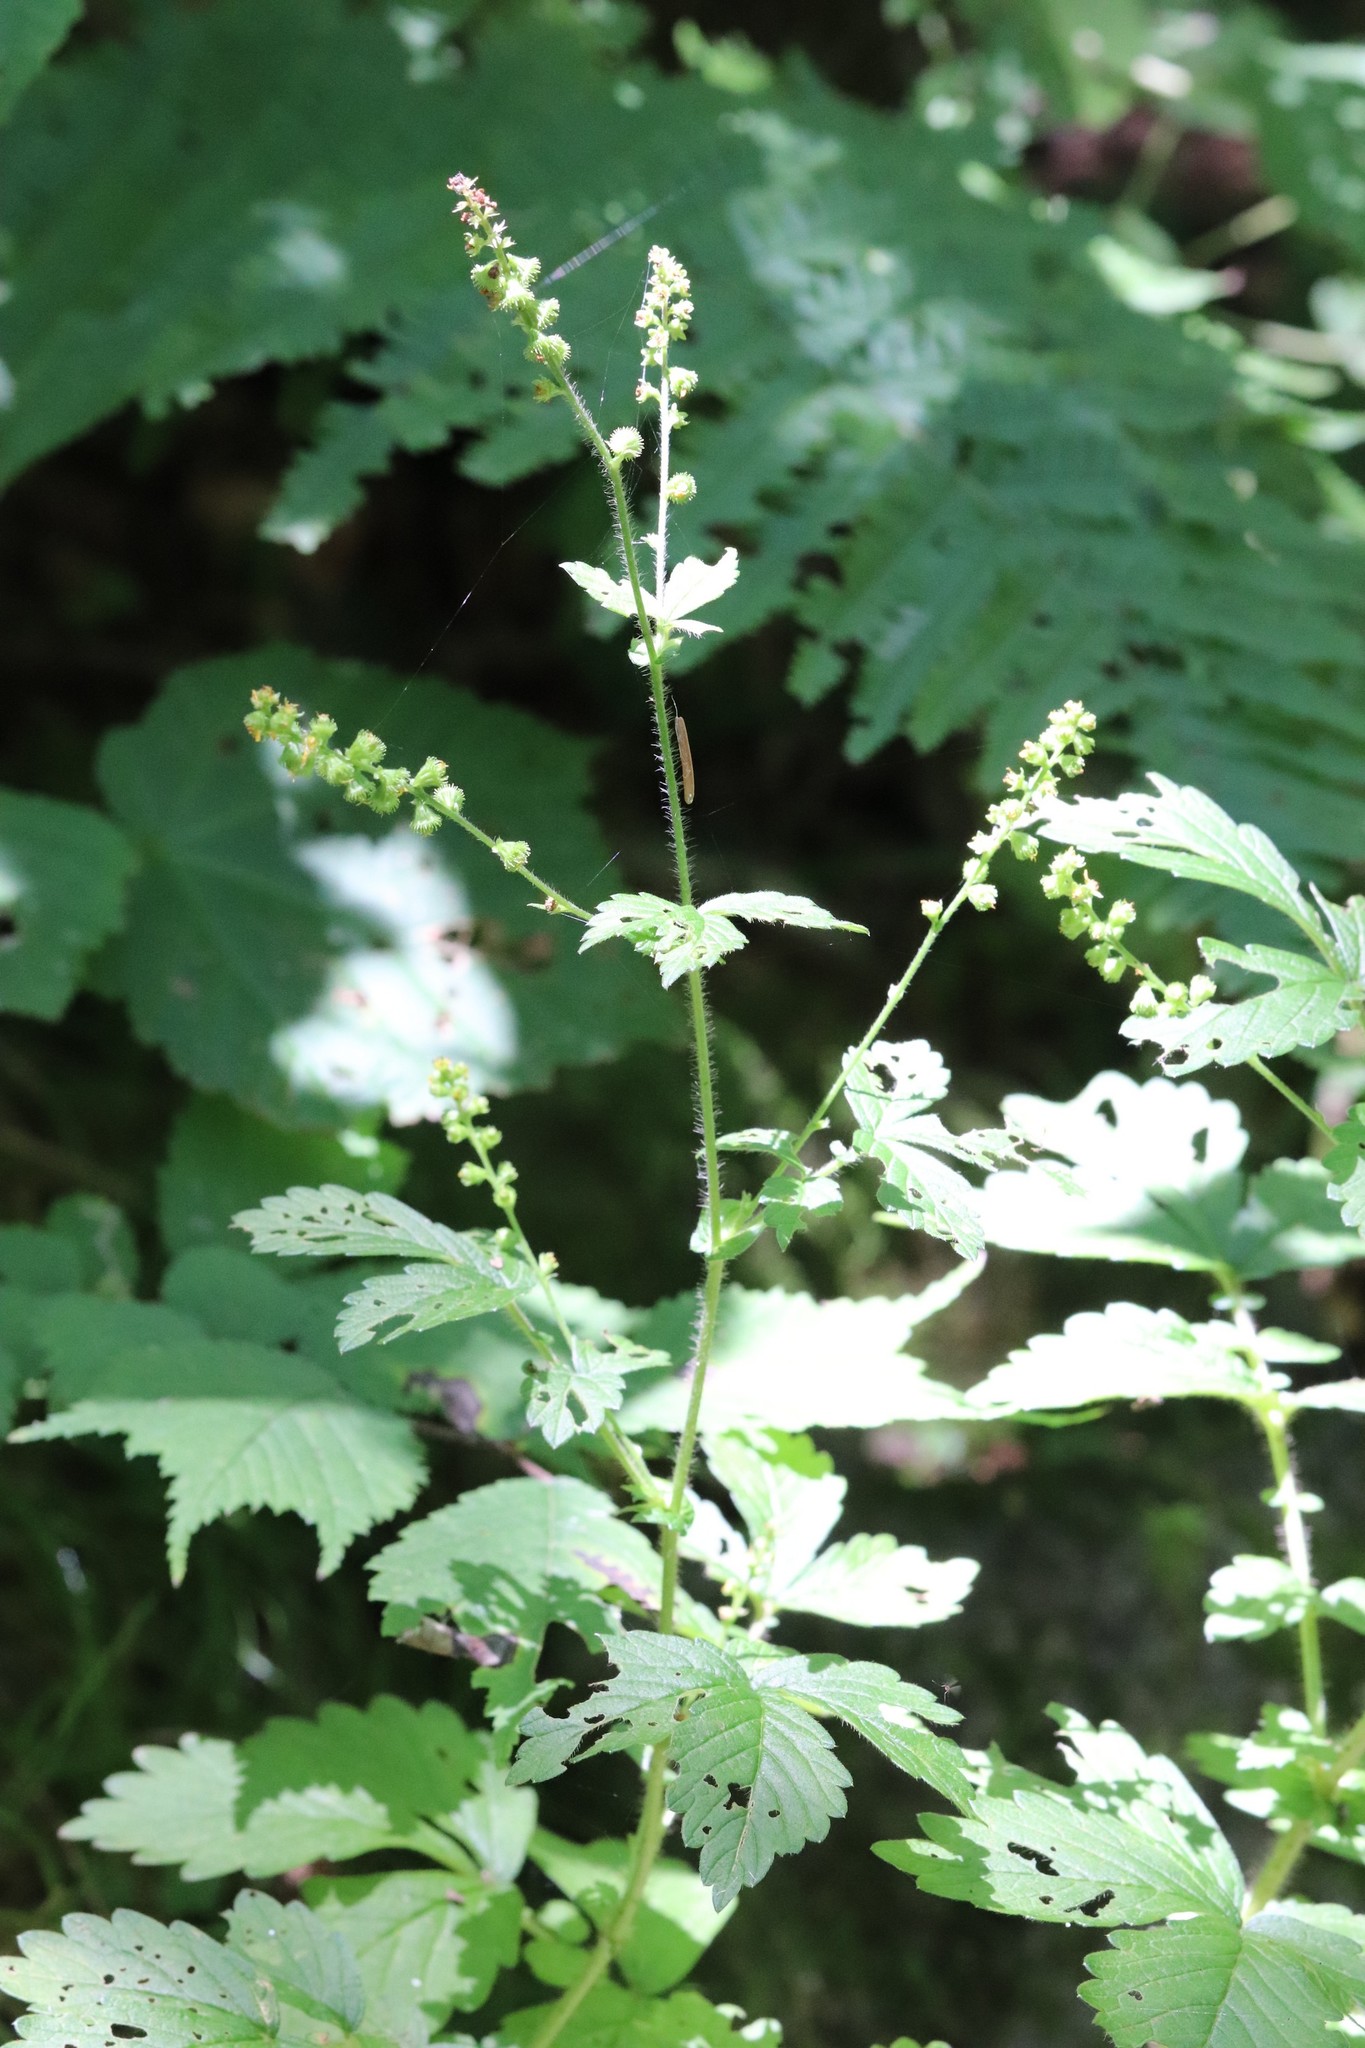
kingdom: Plantae
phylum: Tracheophyta
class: Magnoliopsida
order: Rosales
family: Rosaceae
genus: Agrimonia
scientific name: Agrimonia striata
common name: Britton's agrimony
